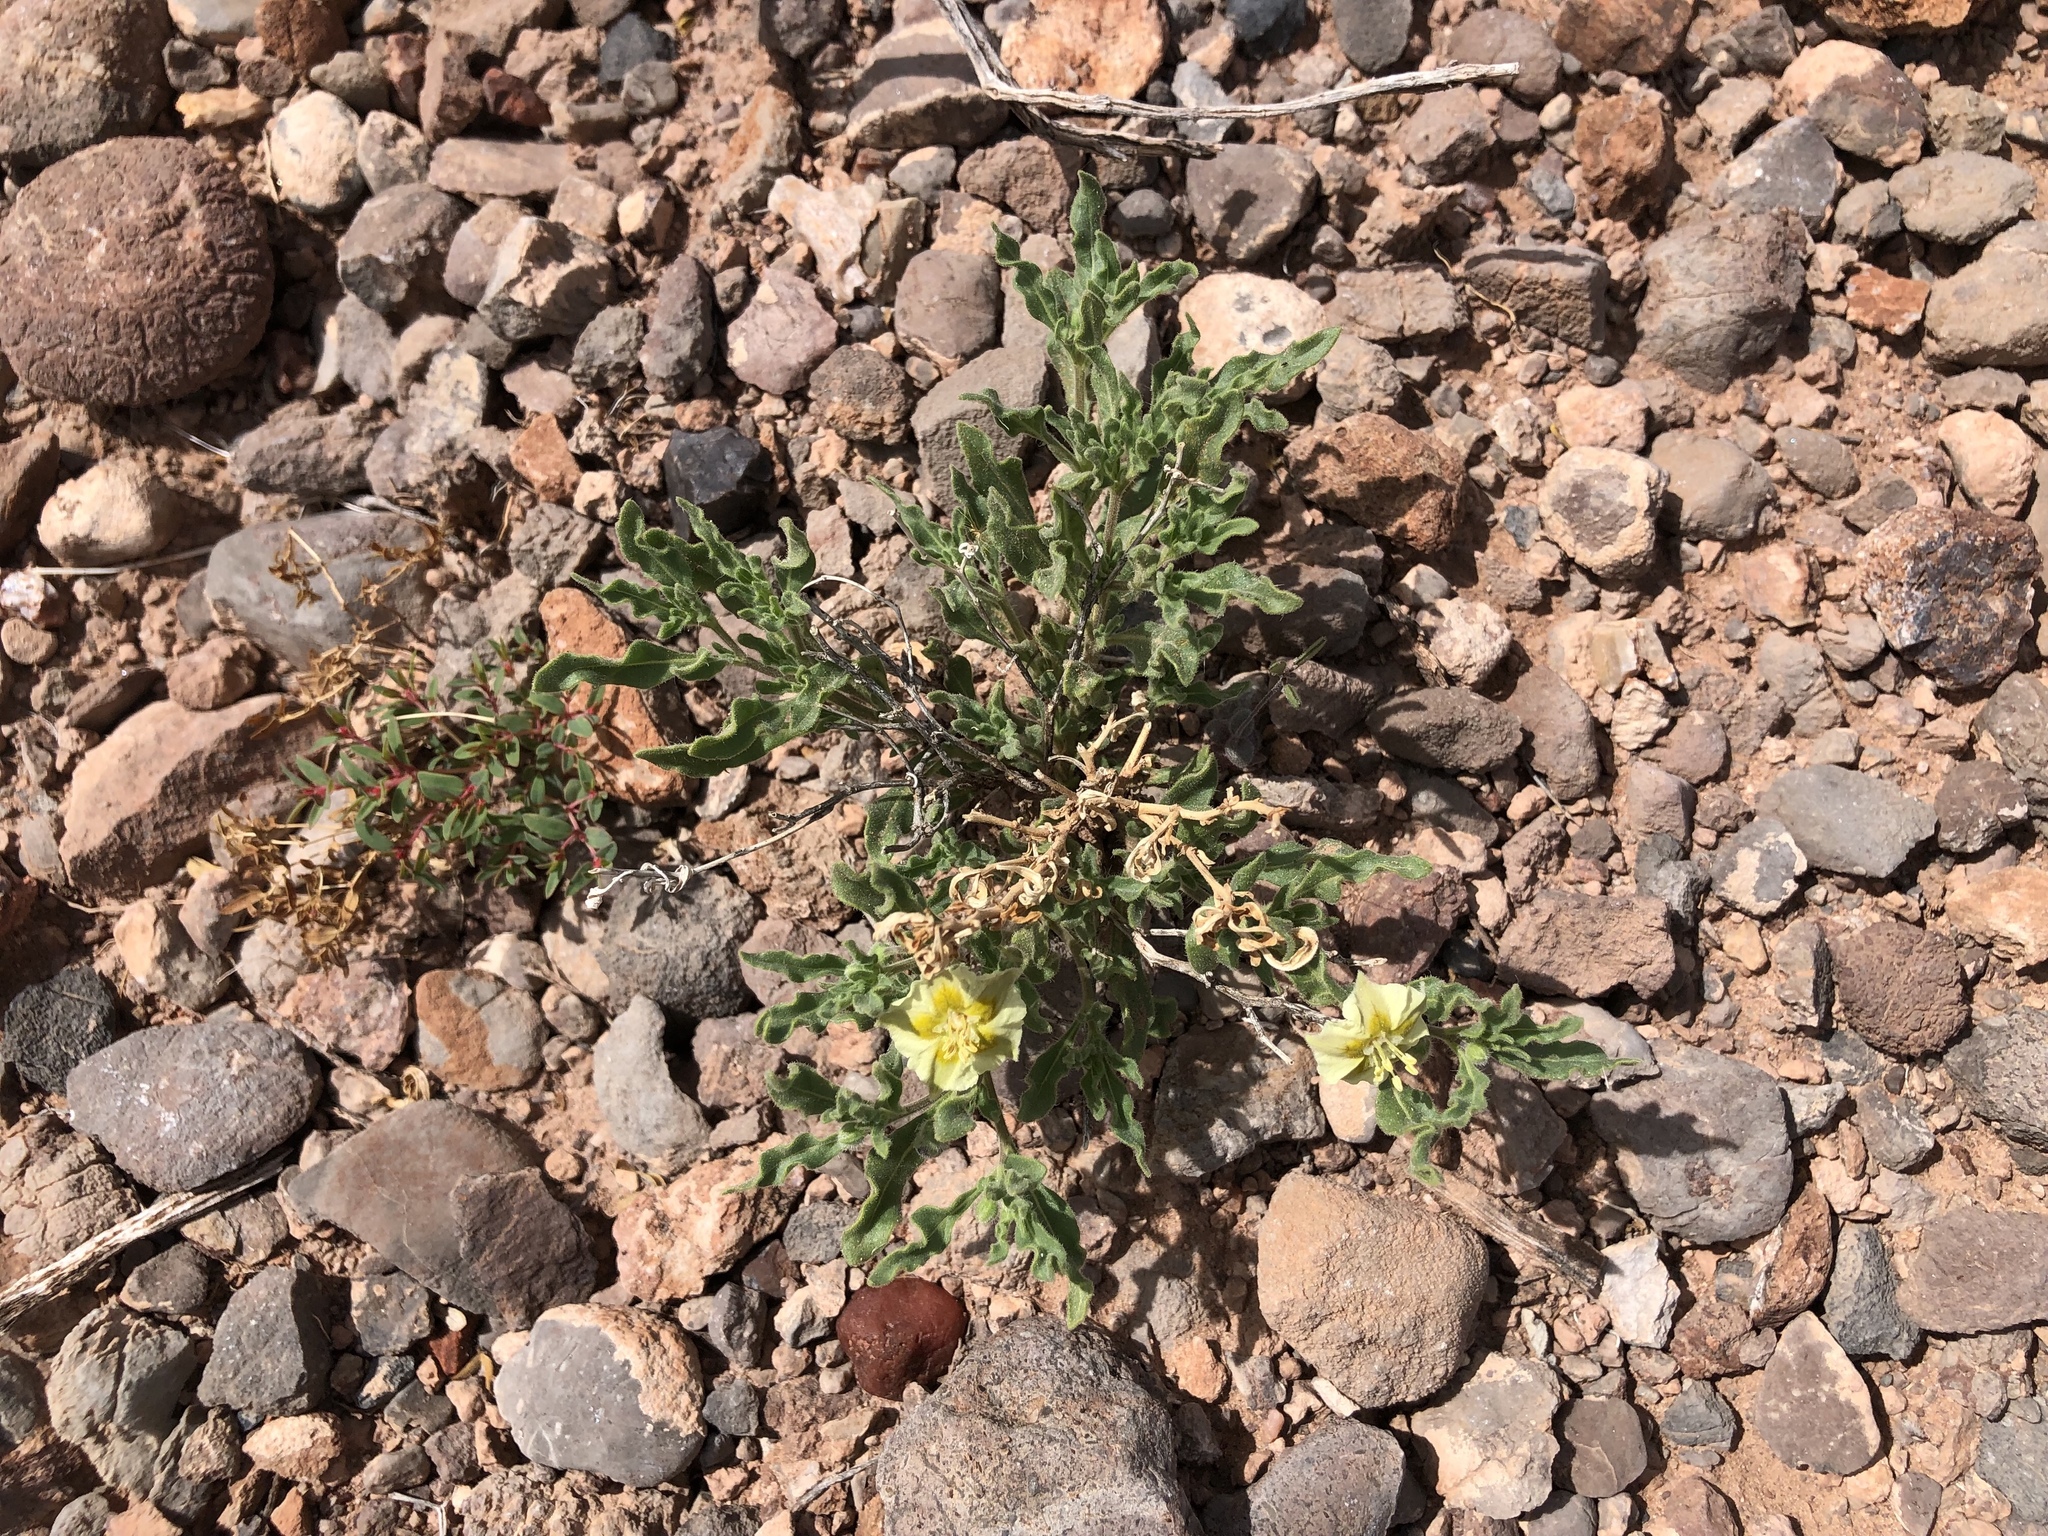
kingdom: Plantae
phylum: Tracheophyta
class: Magnoliopsida
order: Solanales
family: Solanaceae
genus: Chamaesaracha
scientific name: Chamaesaracha sordida
